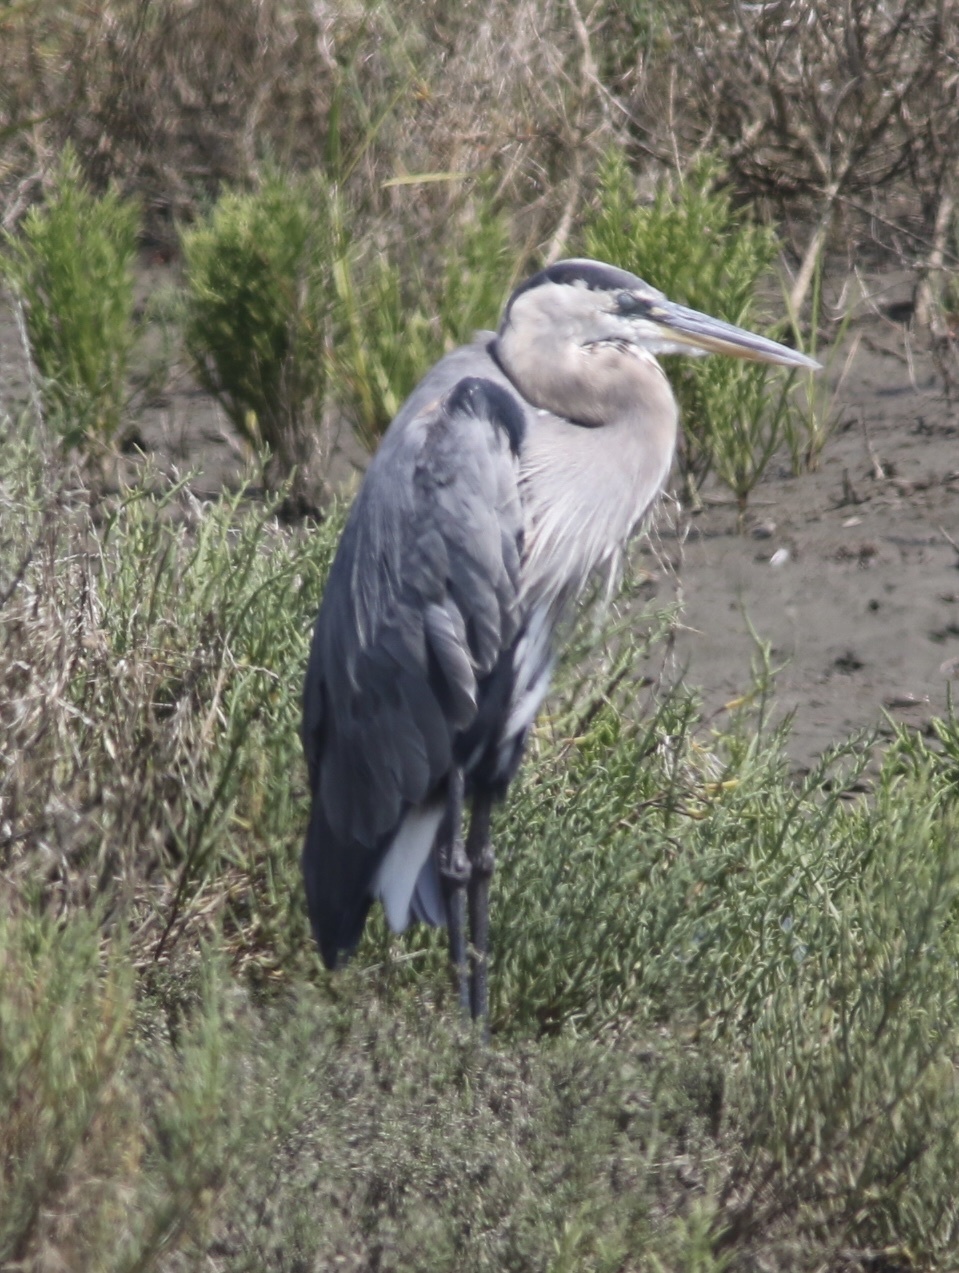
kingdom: Animalia
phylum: Chordata
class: Aves
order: Pelecaniformes
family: Ardeidae
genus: Ardea
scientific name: Ardea herodias
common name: Great blue heron
